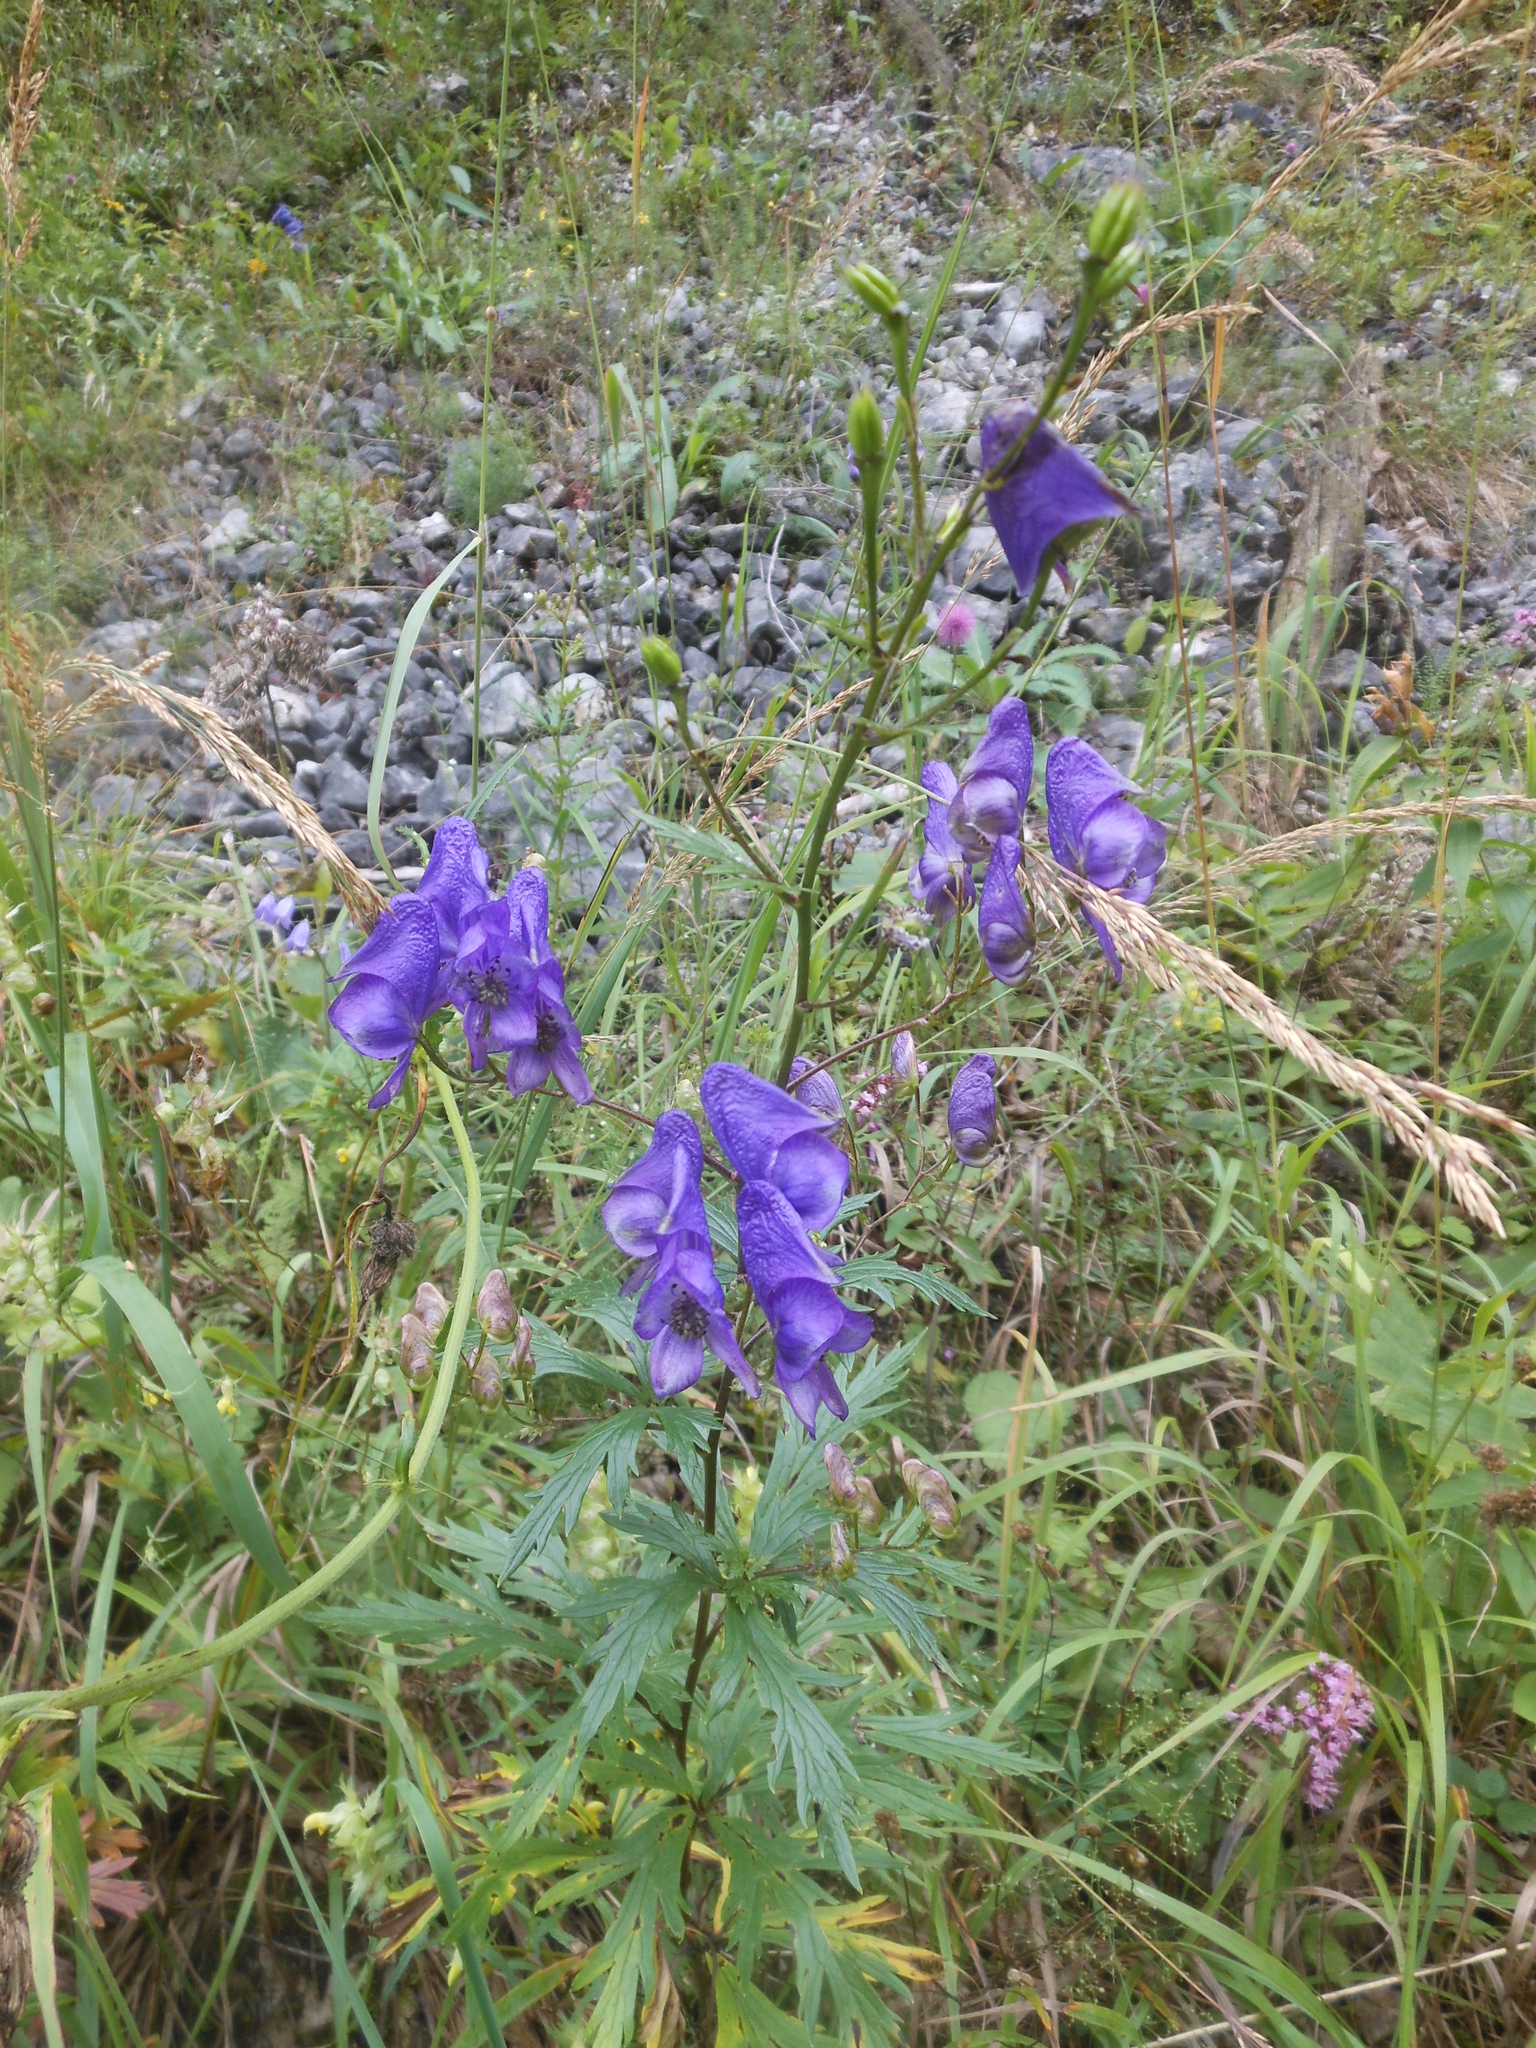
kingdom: Plantae
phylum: Tracheophyta
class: Magnoliopsida
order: Ranunculales
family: Ranunculaceae
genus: Aconitum
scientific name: Aconitum variegatum
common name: Manchurian monkshood
